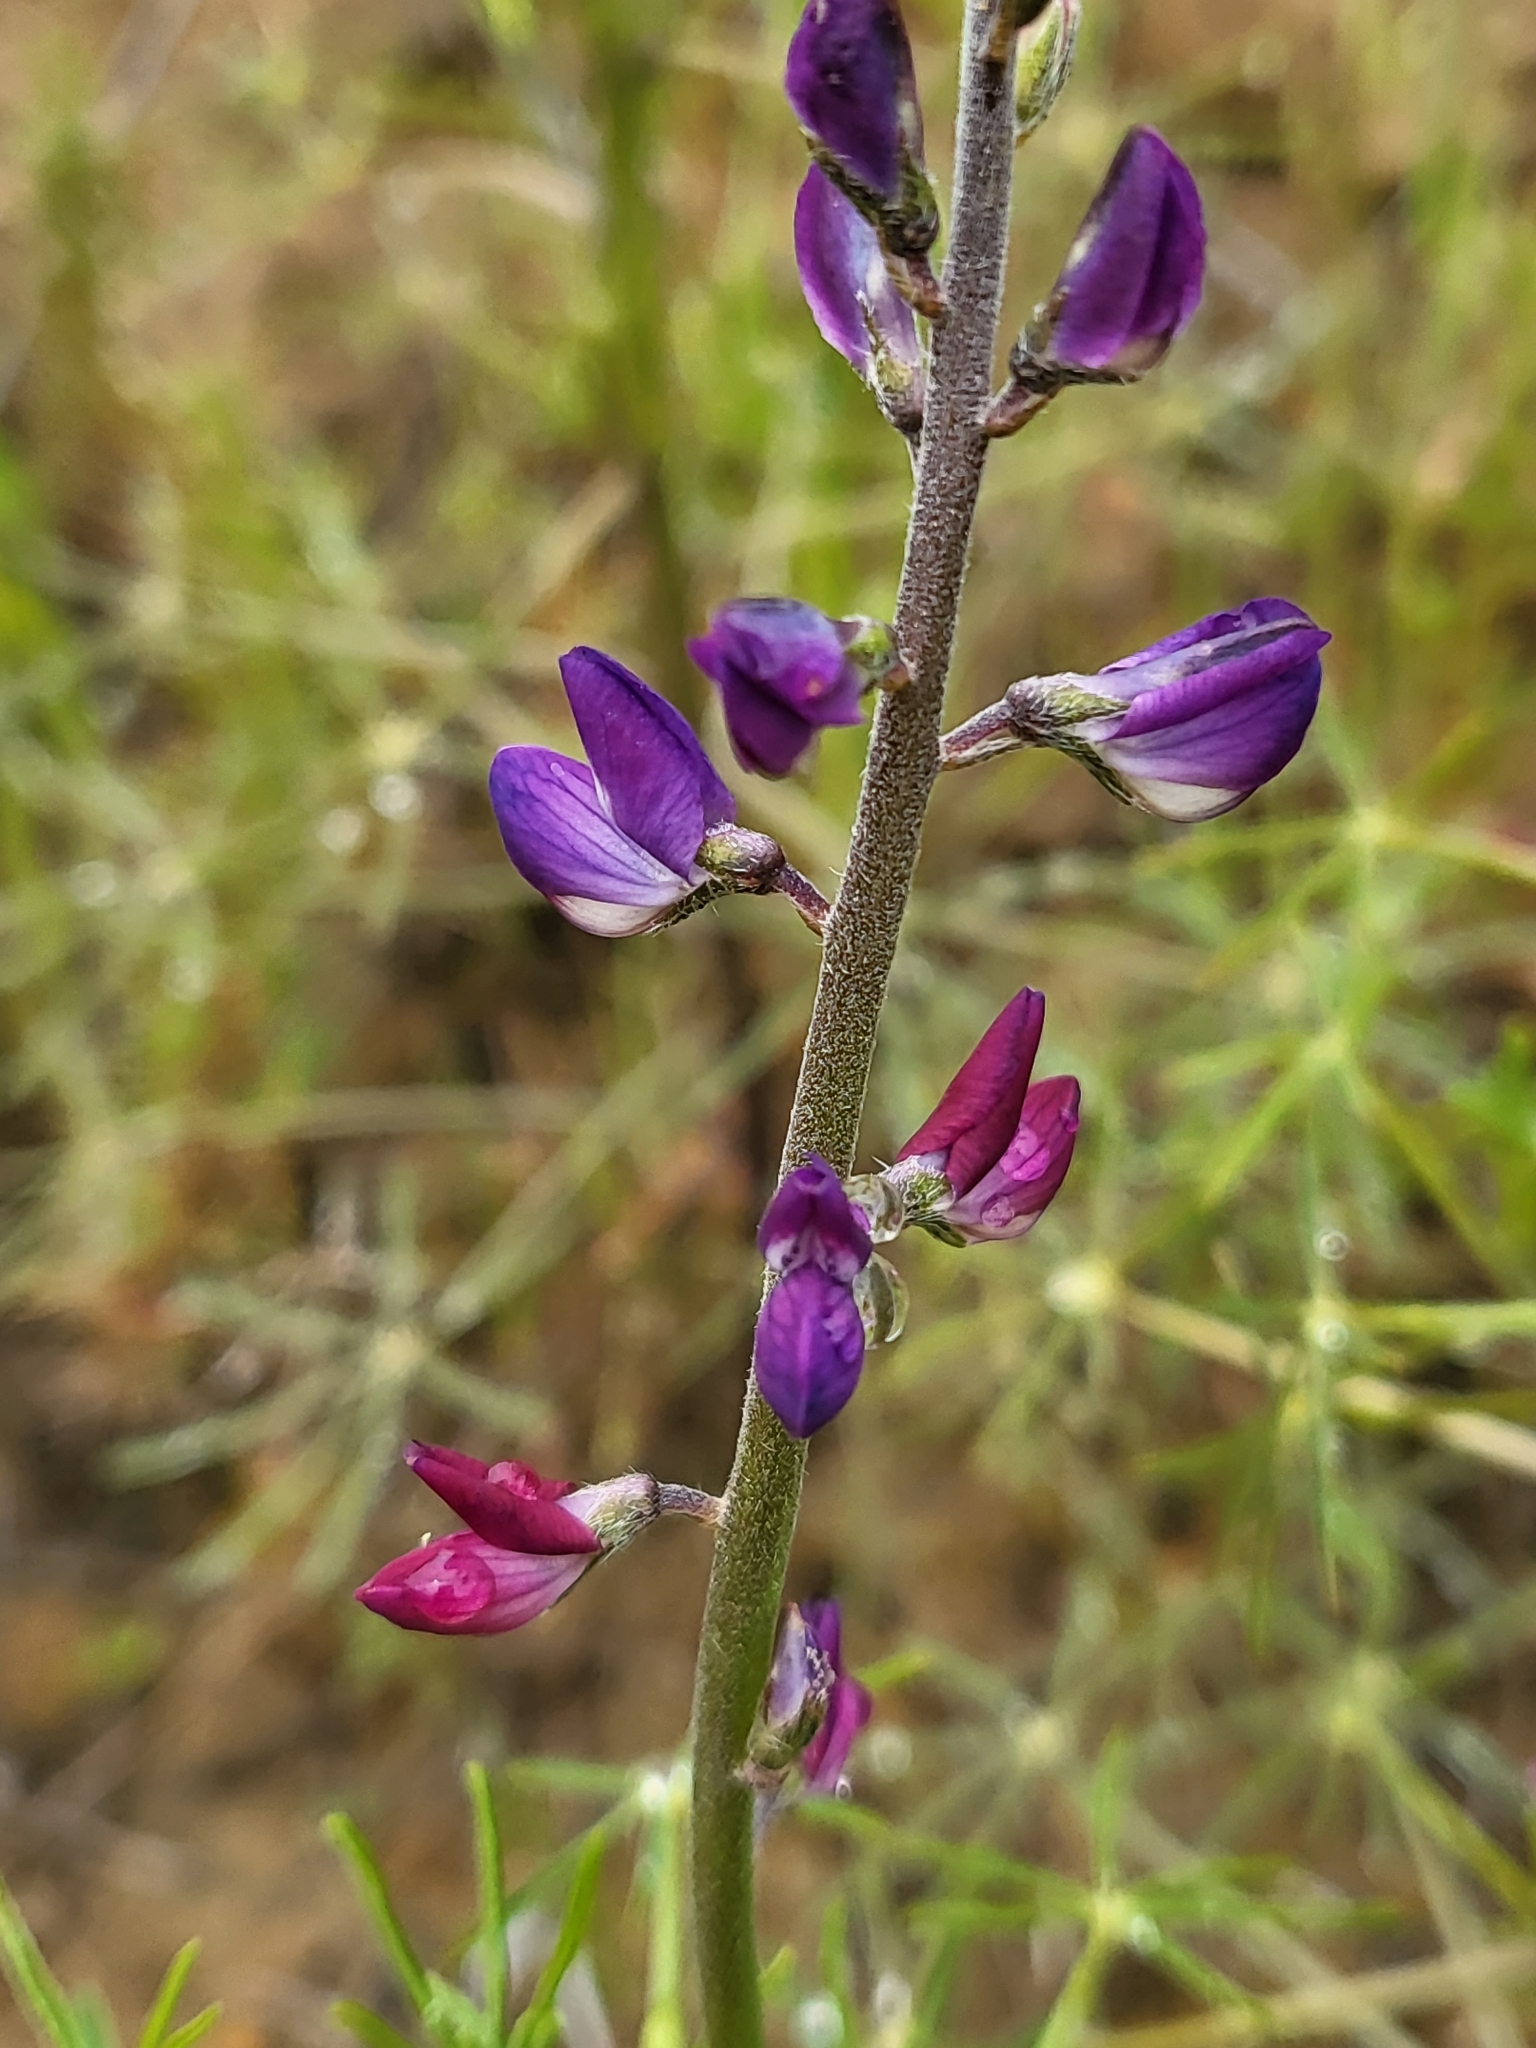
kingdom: Plantae
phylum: Tracheophyta
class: Magnoliopsida
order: Fabales
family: Fabaceae
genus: Lupinus
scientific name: Lupinus truncatus
